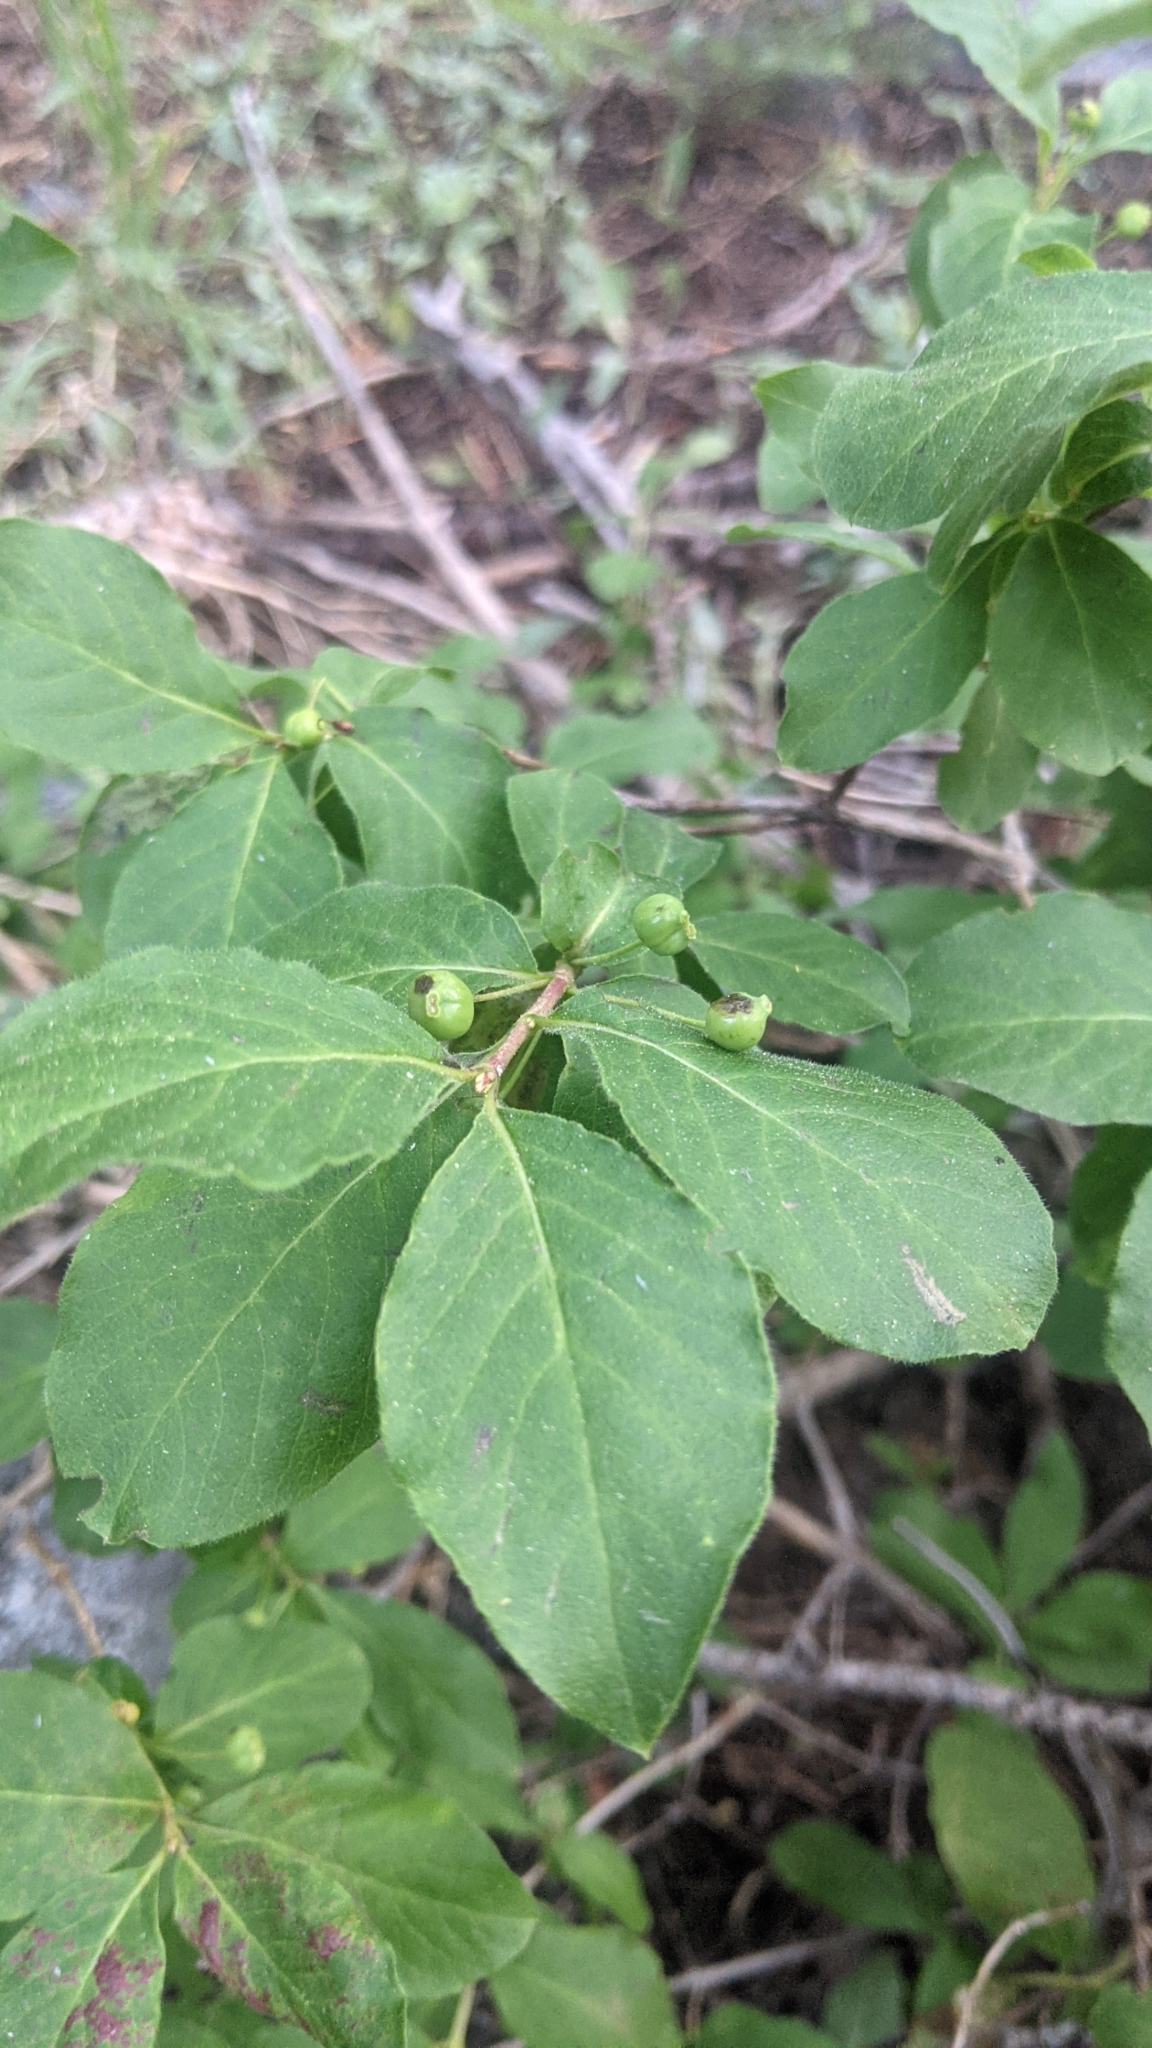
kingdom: Plantae
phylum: Tracheophyta
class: Magnoliopsida
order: Dipsacales
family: Caprifoliaceae
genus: Lonicera
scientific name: Lonicera conjugialis
